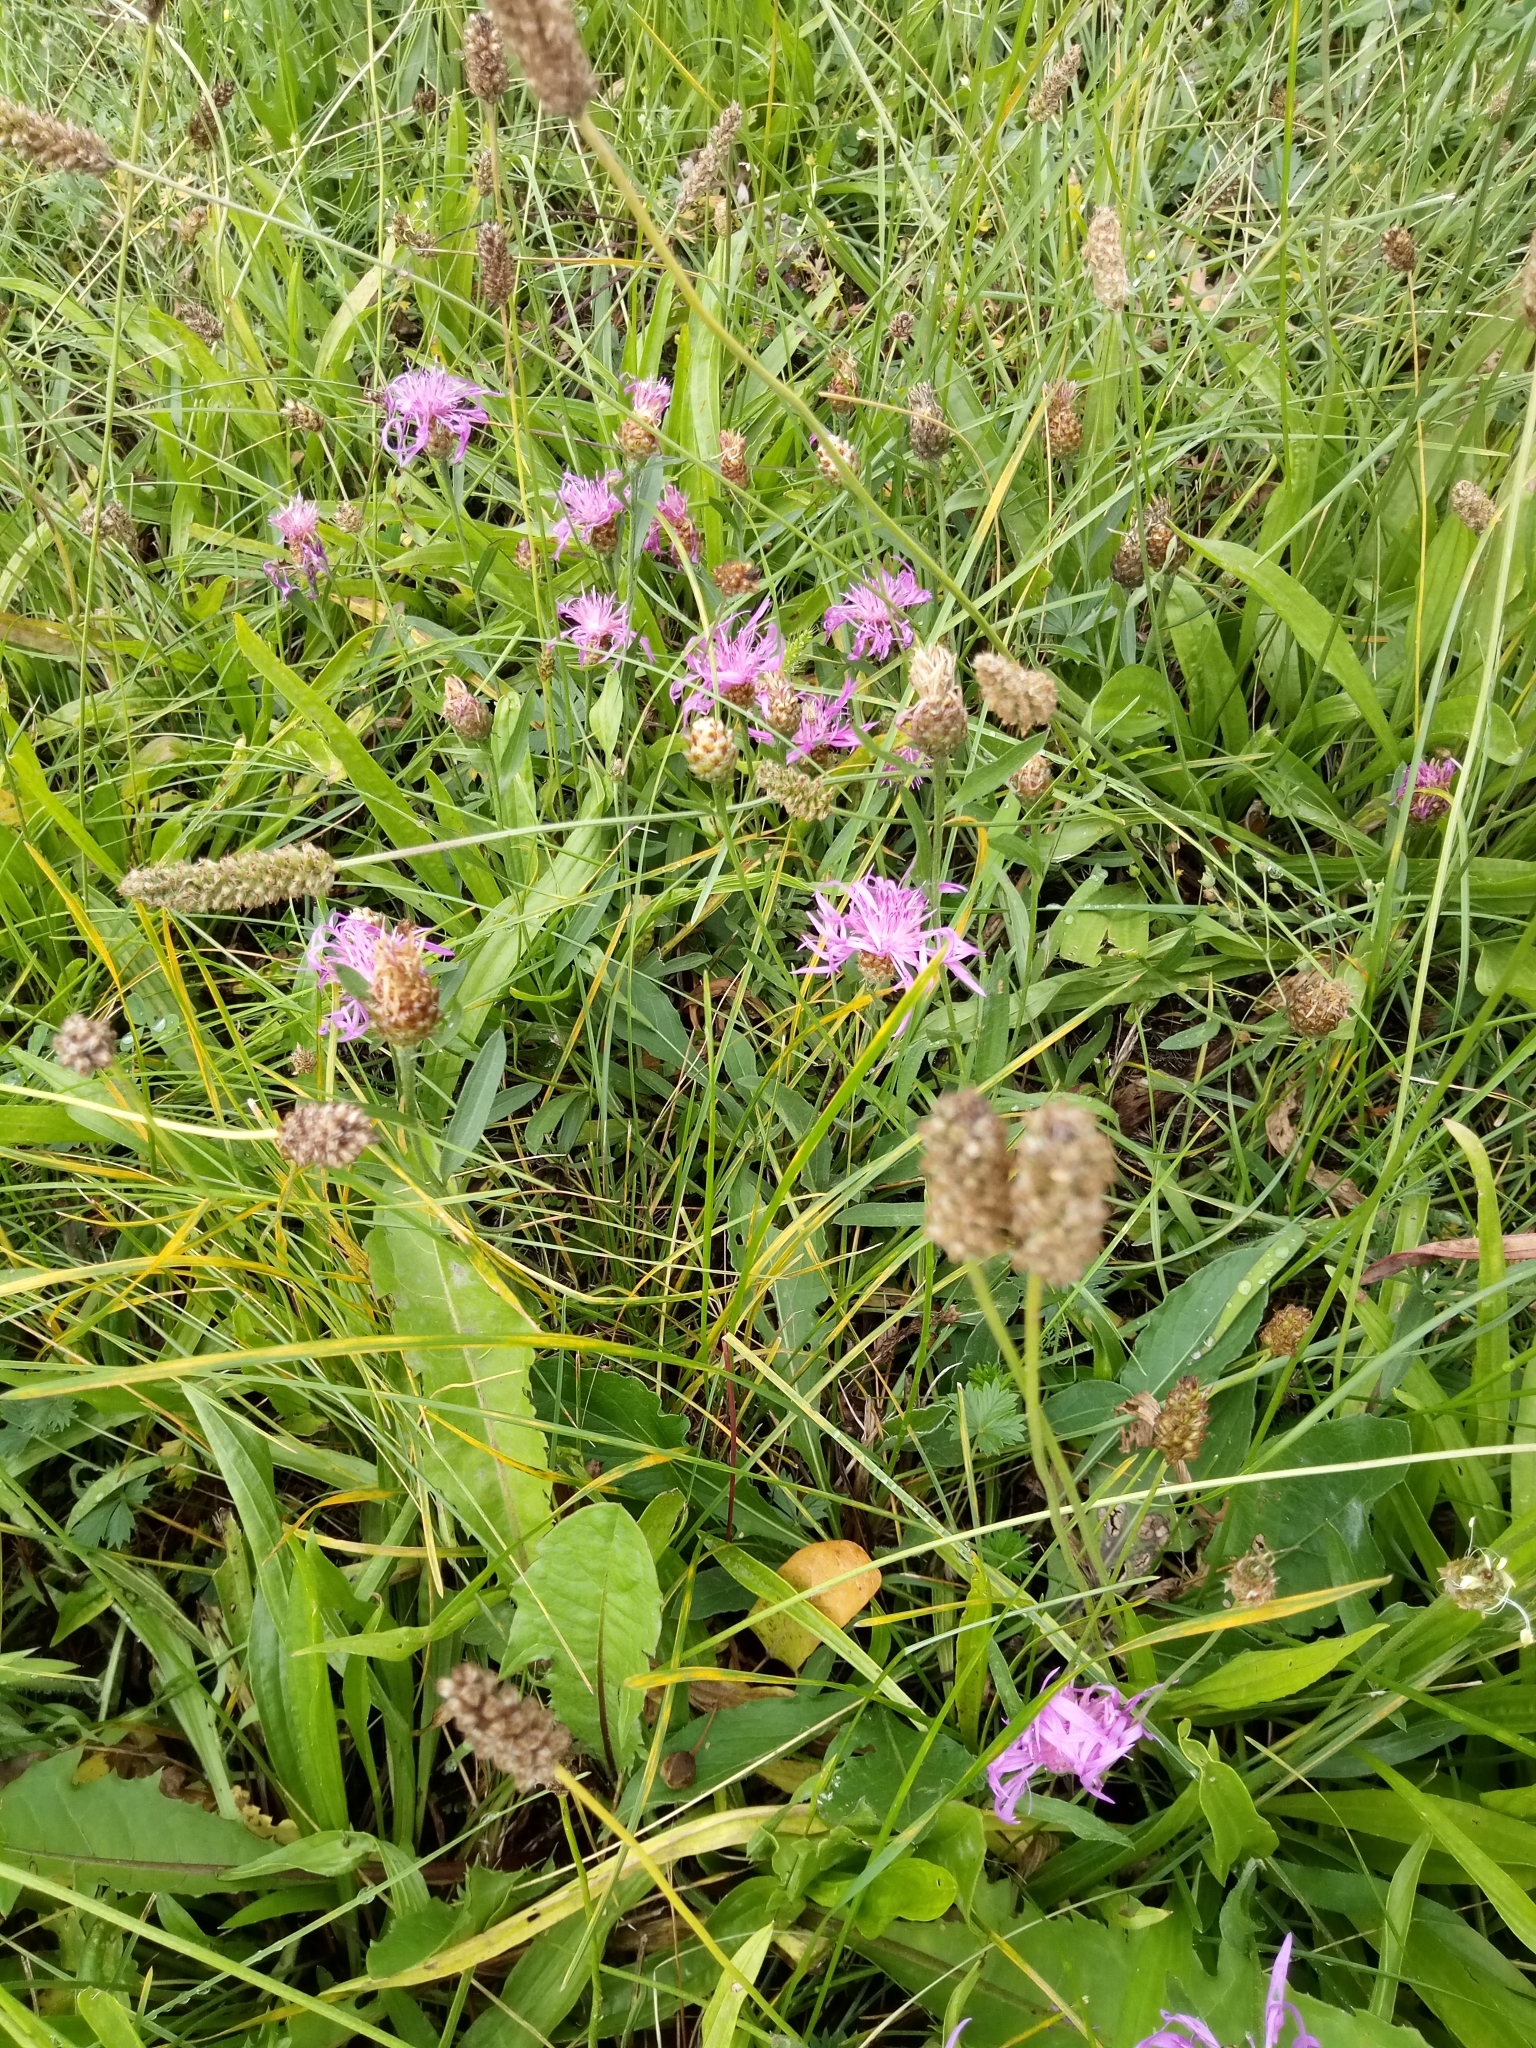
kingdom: Plantae
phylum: Tracheophyta
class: Magnoliopsida
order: Asterales
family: Asteraceae
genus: Centaurea
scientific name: Centaurea jacea
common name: Brown knapweed
